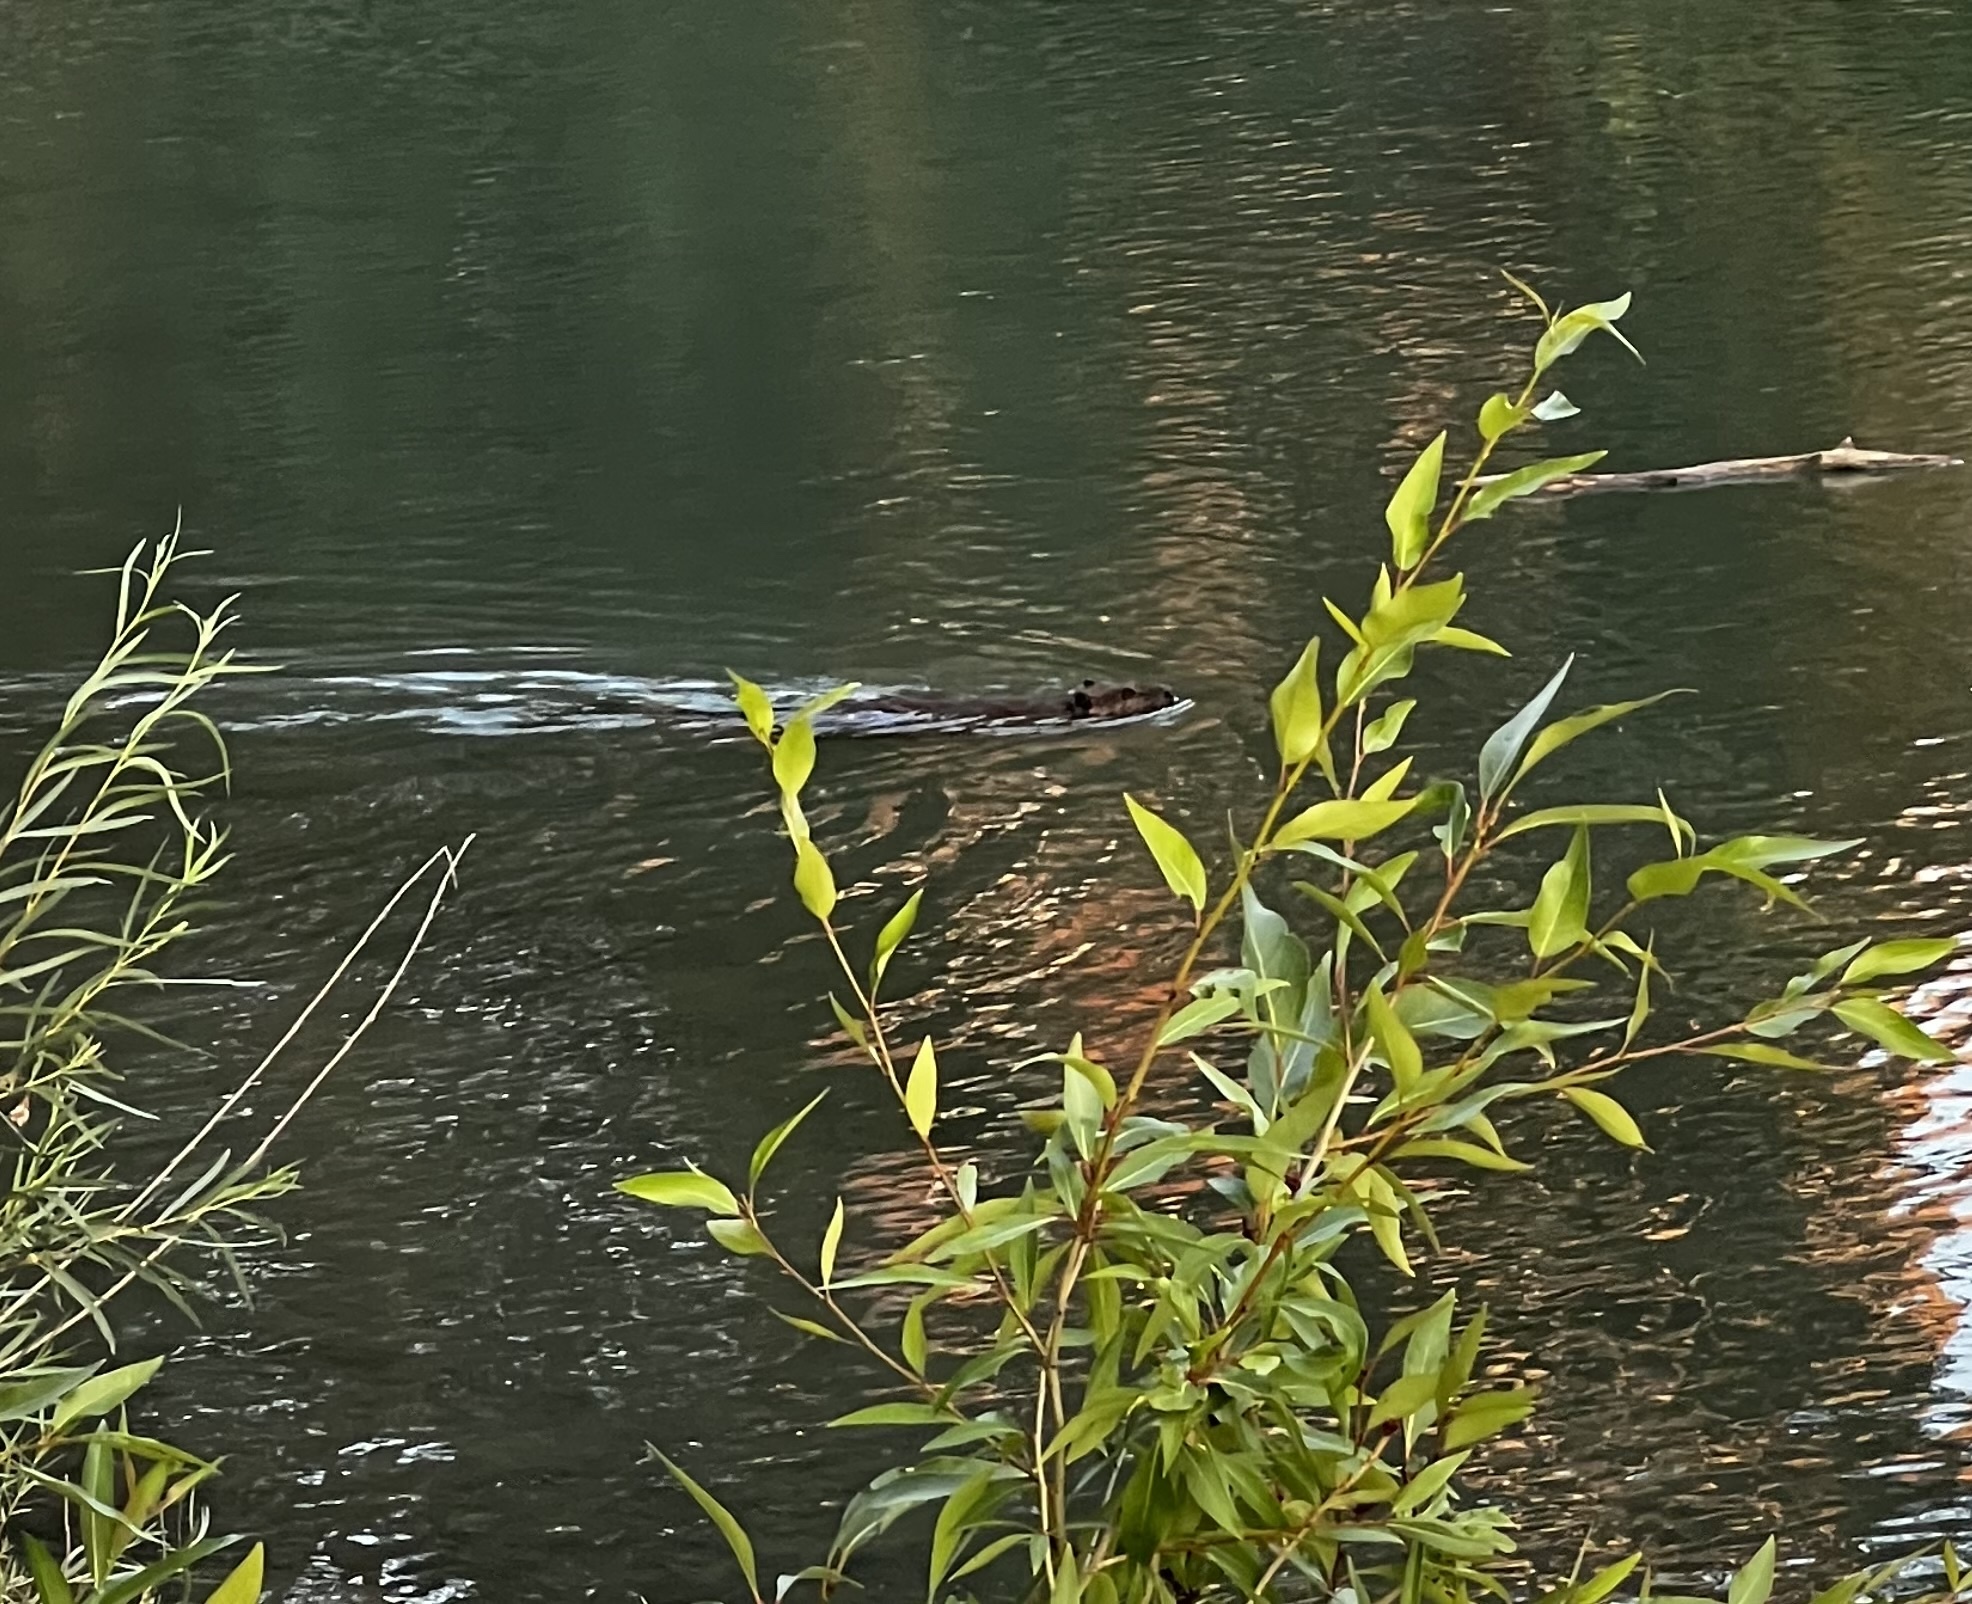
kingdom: Animalia
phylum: Chordata
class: Mammalia
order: Rodentia
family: Castoridae
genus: Castor
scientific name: Castor canadensis
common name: American beaver
